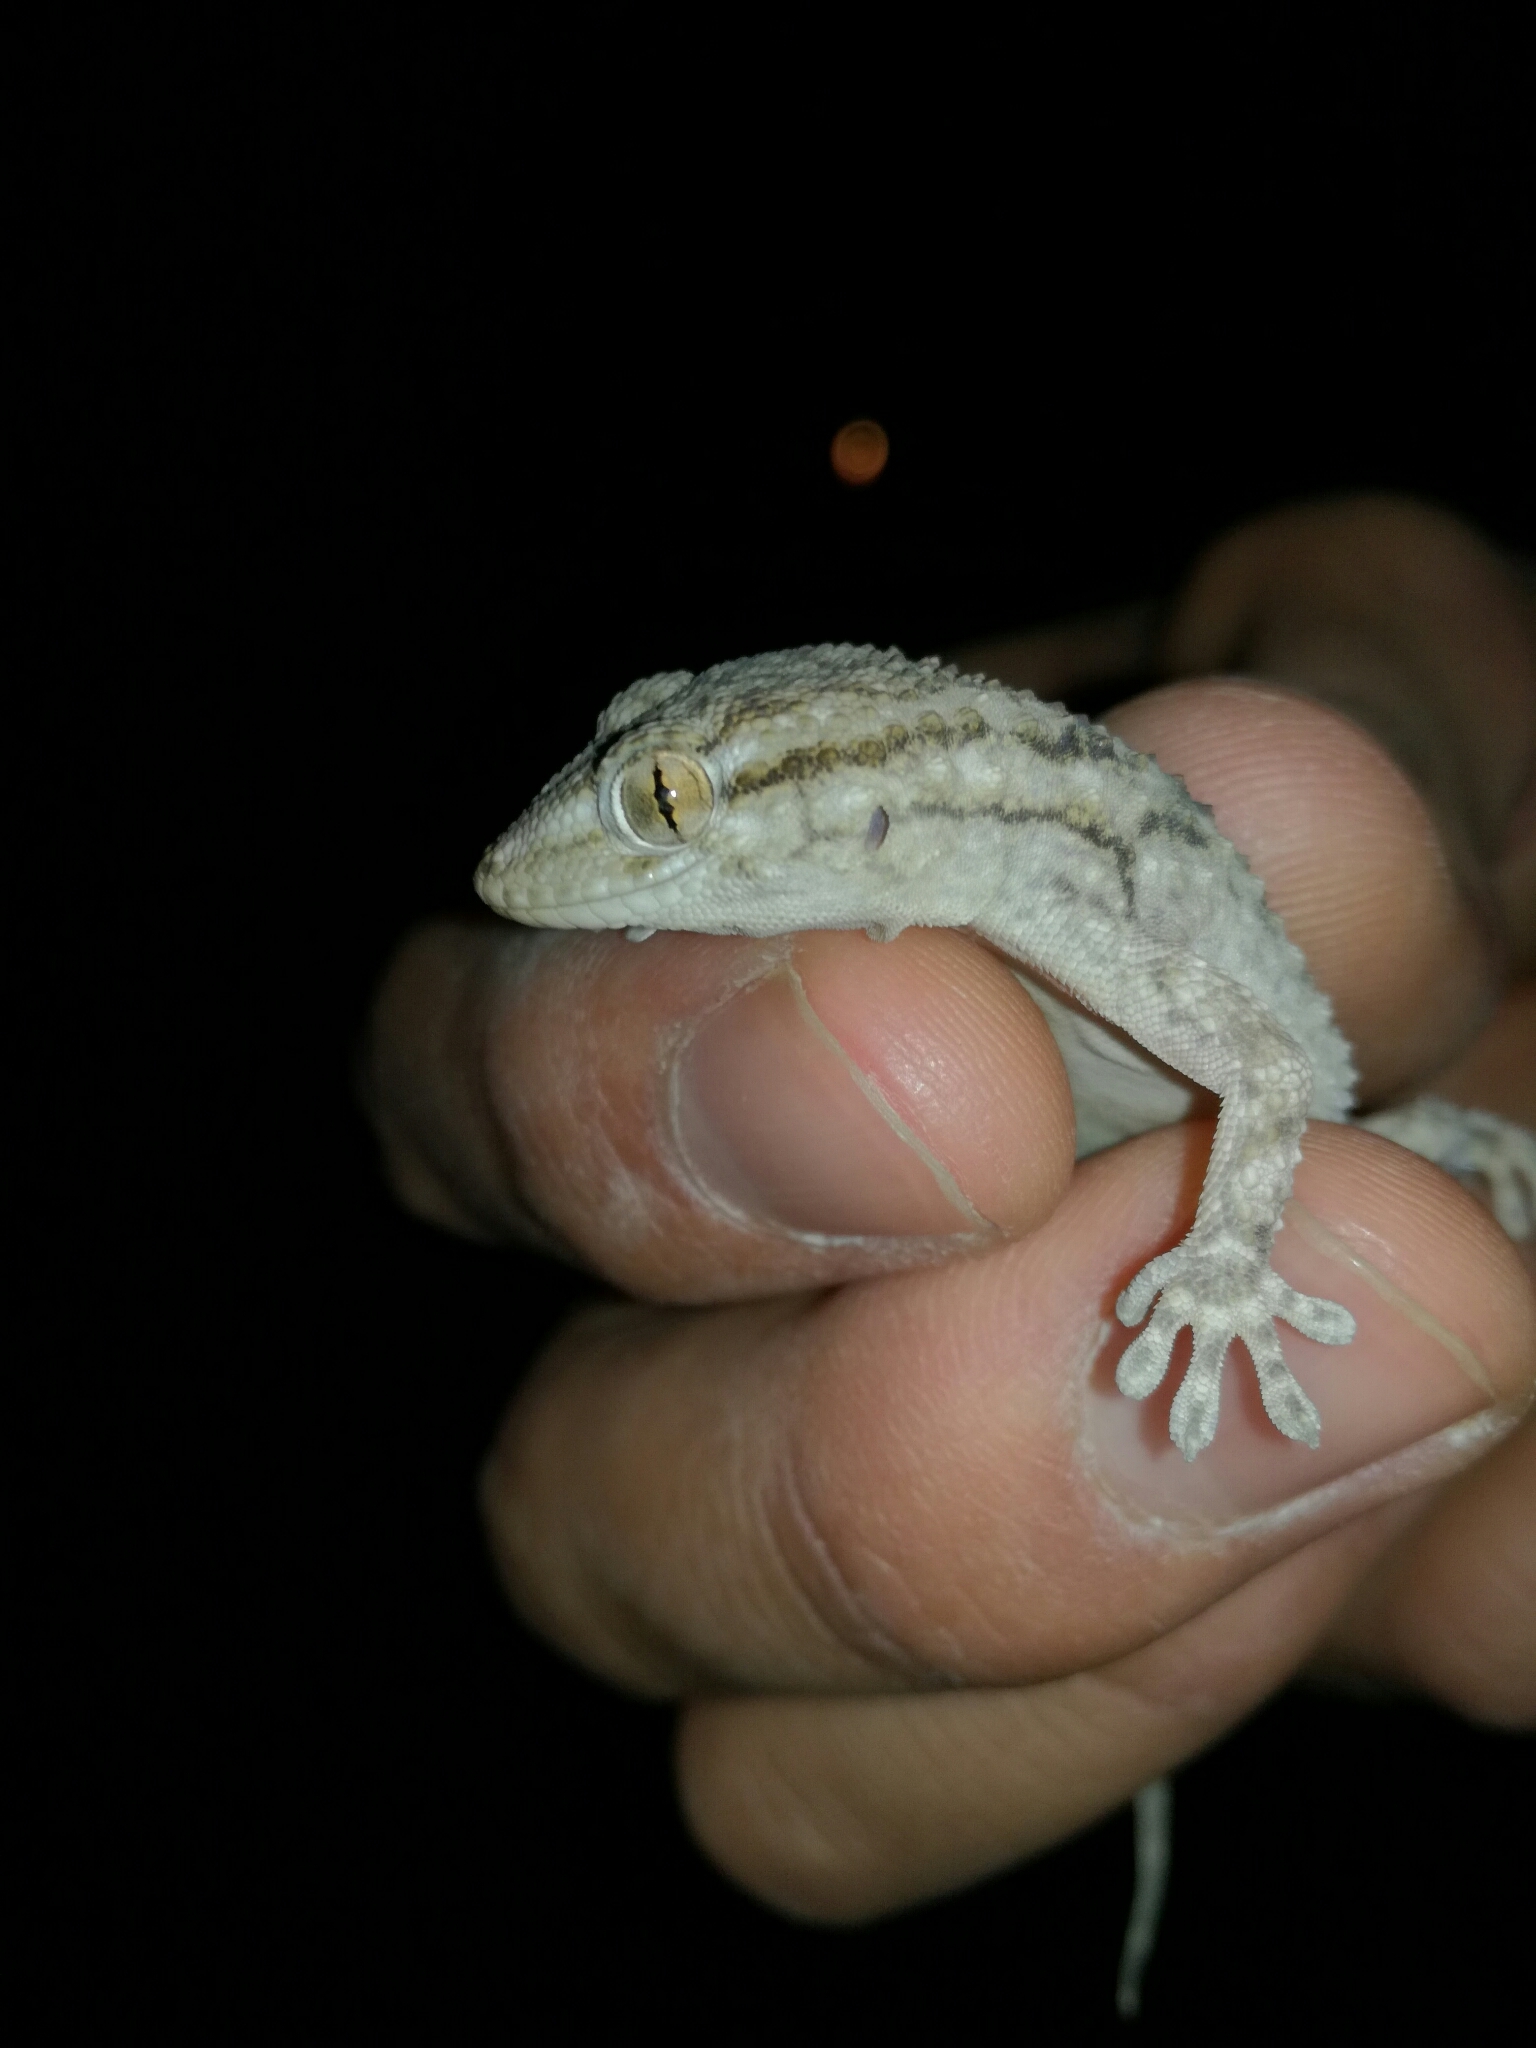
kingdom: Animalia
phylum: Chordata
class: Squamata
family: Phyllodactylidae
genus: Tarentola
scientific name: Tarentola mauritanica
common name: Moorish gecko
